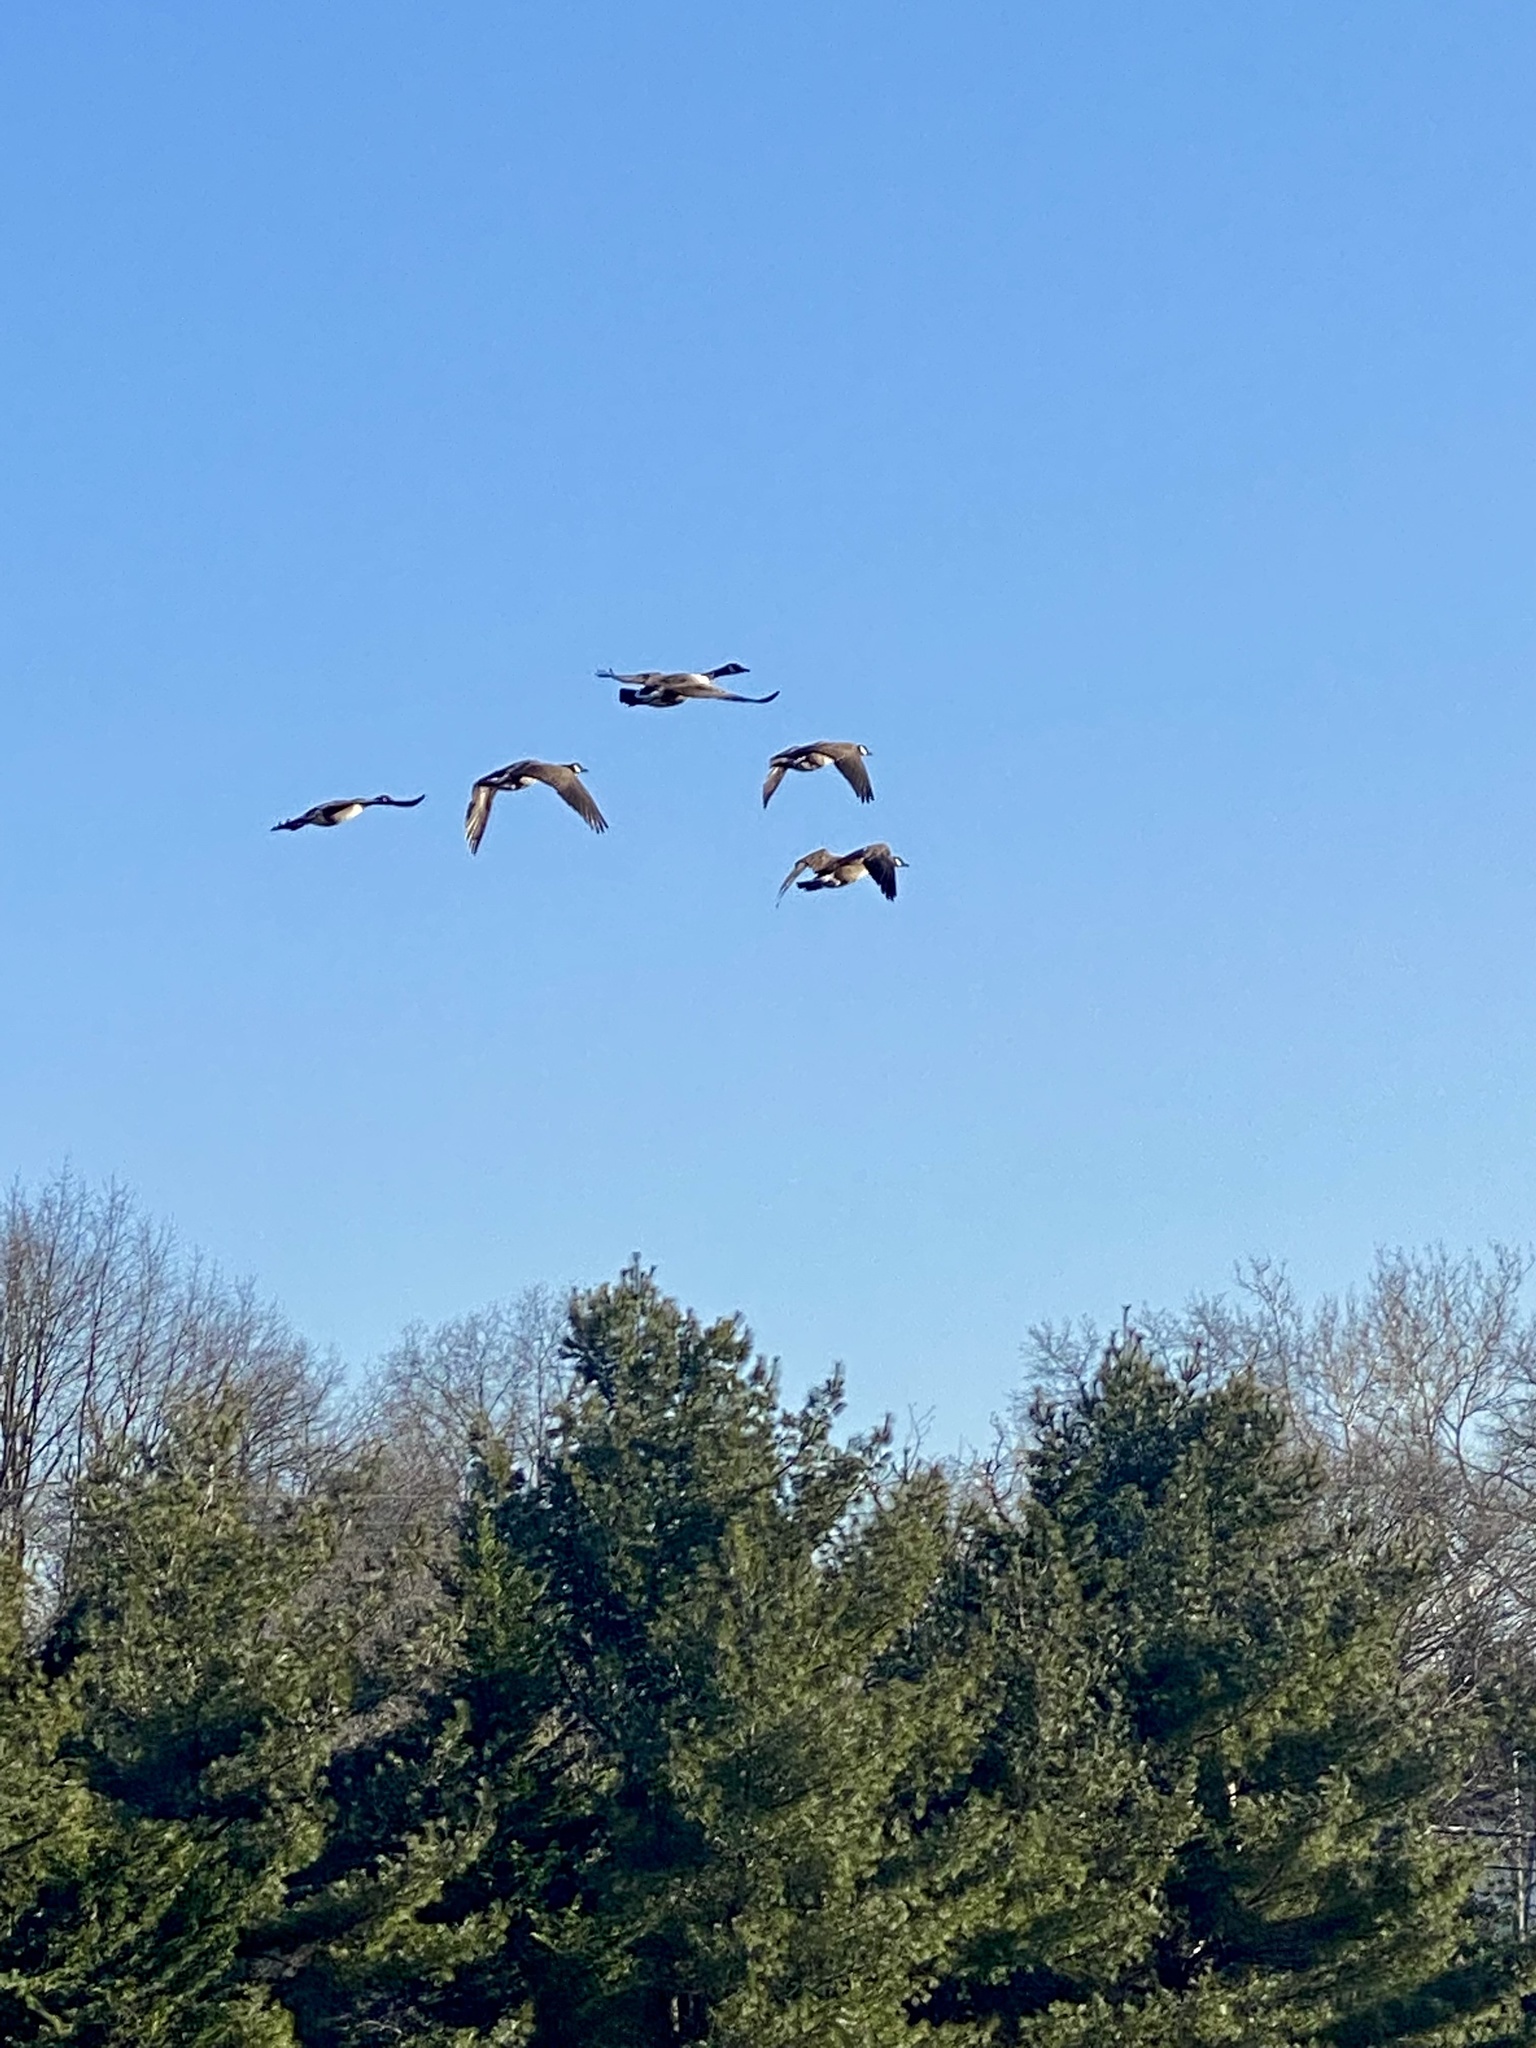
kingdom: Animalia
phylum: Chordata
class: Aves
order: Anseriformes
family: Anatidae
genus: Branta
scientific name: Branta canadensis
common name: Canada goose
